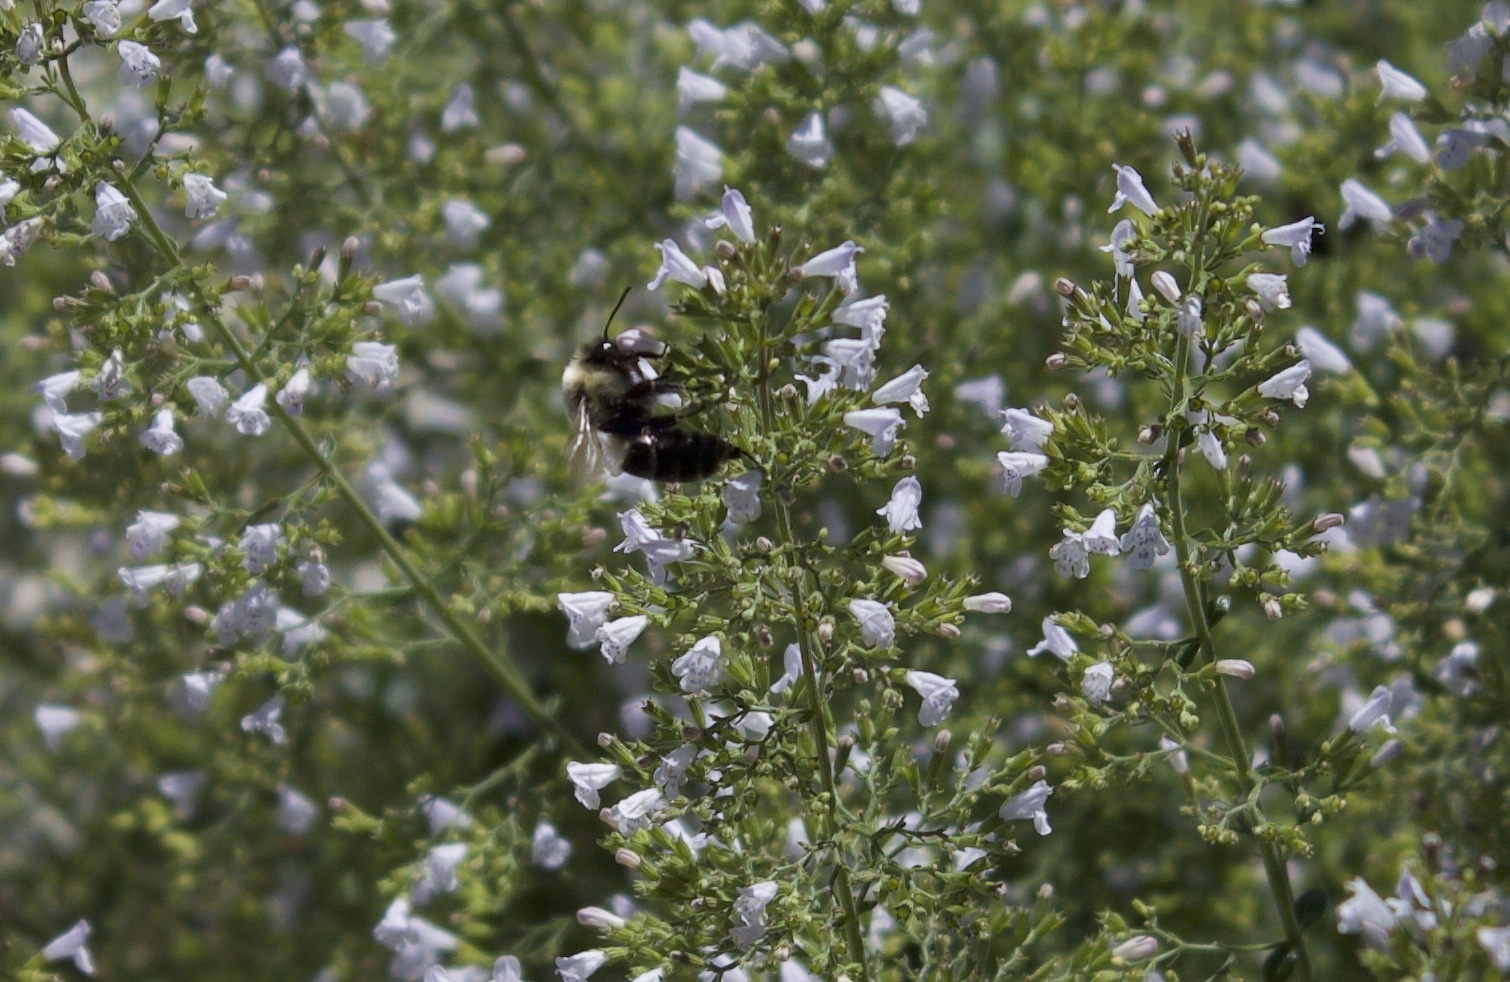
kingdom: Animalia
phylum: Arthropoda
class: Insecta
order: Hymenoptera
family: Apidae
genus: Bombus
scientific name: Bombus impatiens
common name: Common eastern bumble bee
